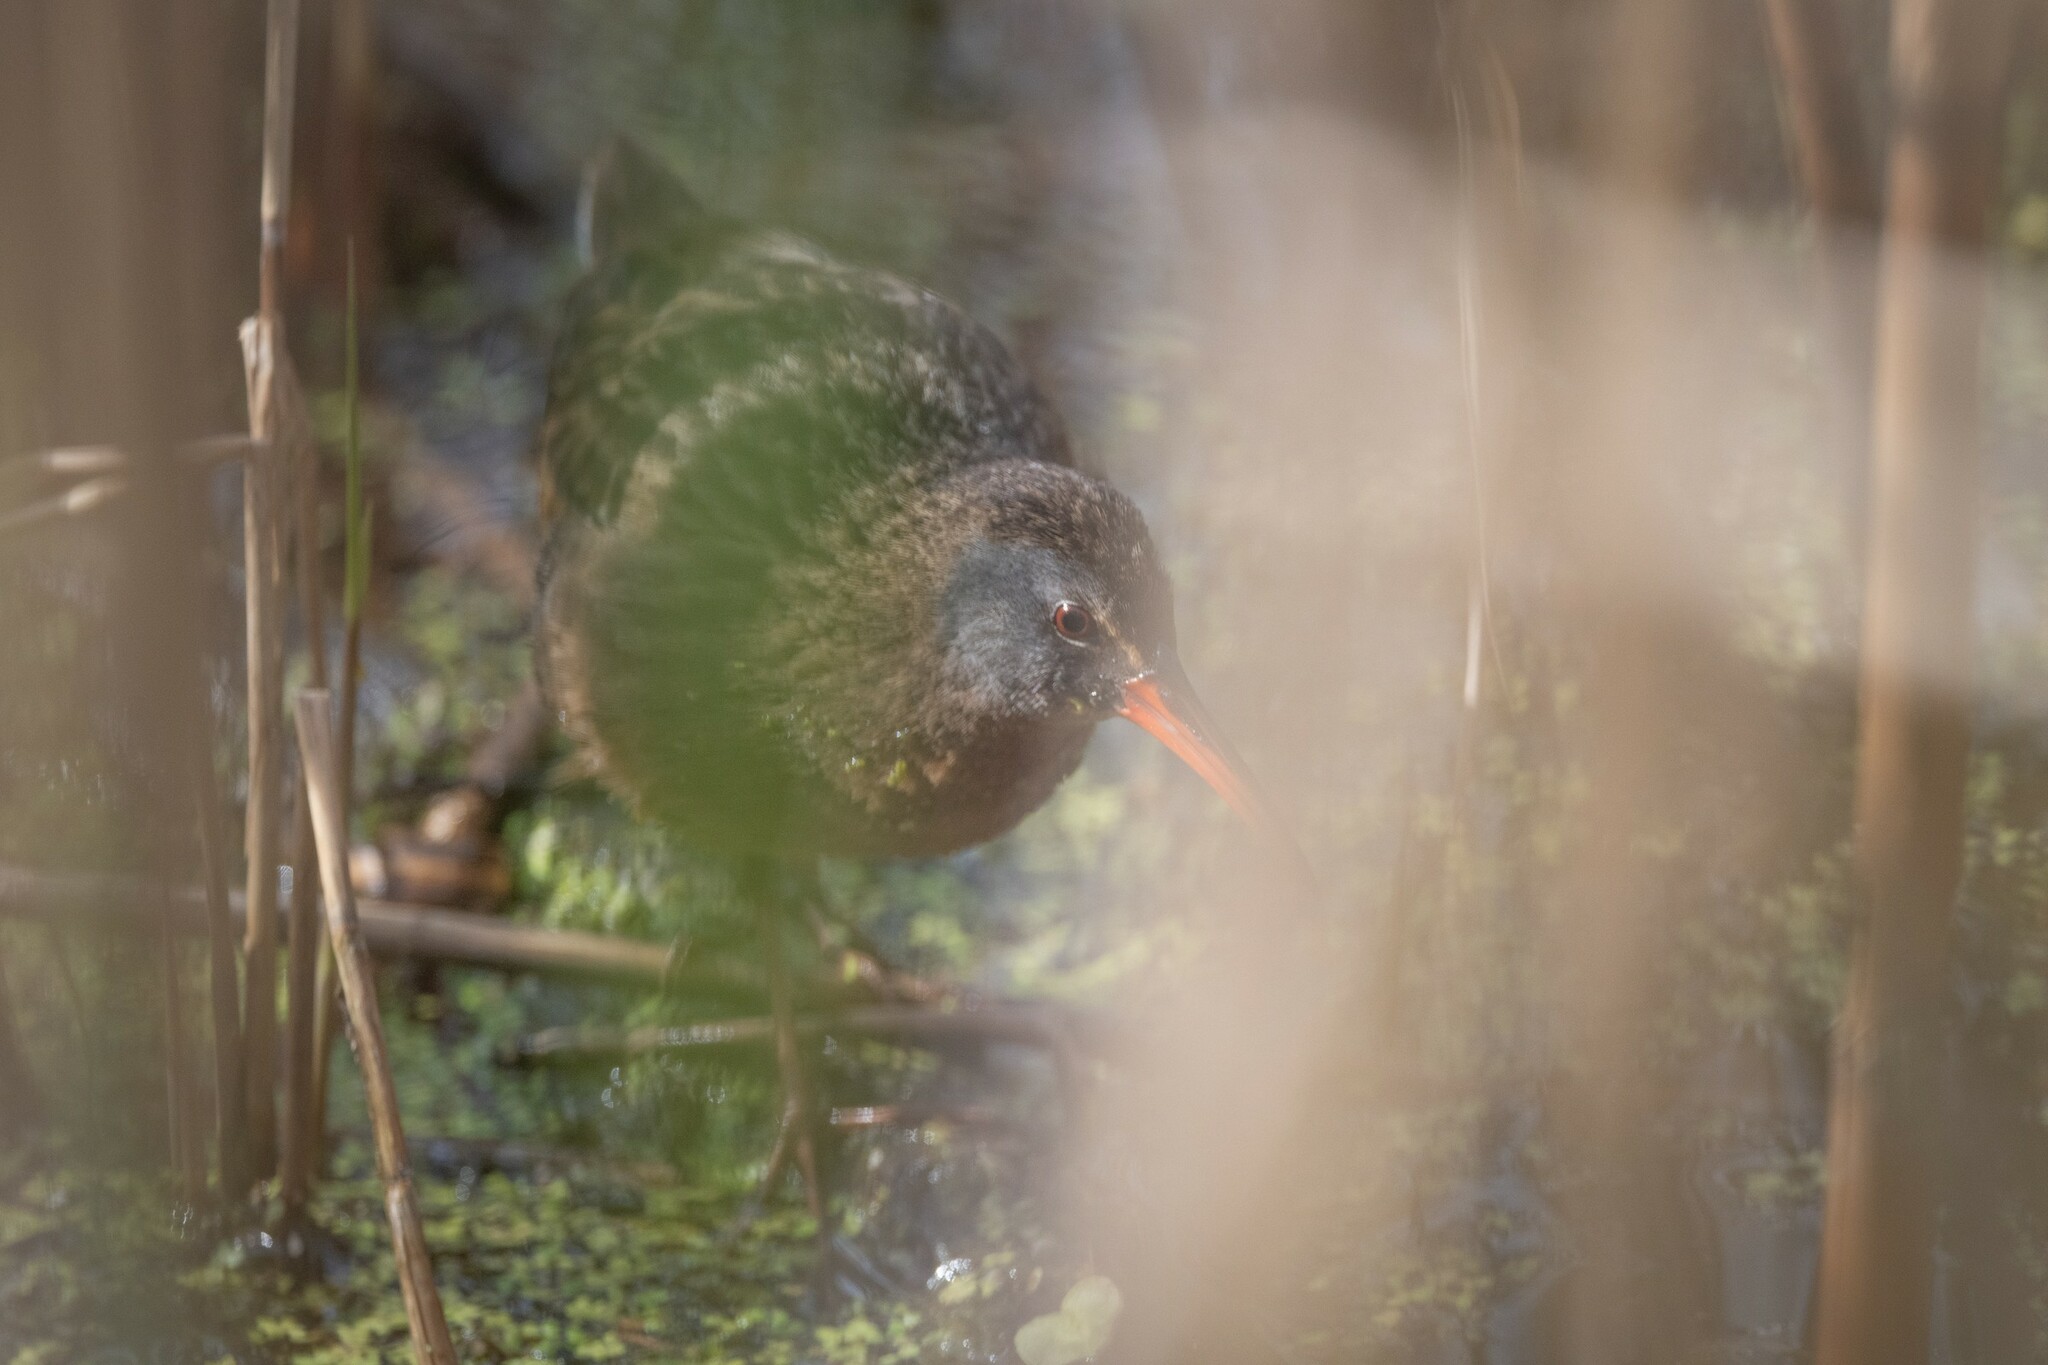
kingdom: Animalia
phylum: Chordata
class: Aves
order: Gruiformes
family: Rallidae
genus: Rallus
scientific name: Rallus limicola
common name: Virginia rail
